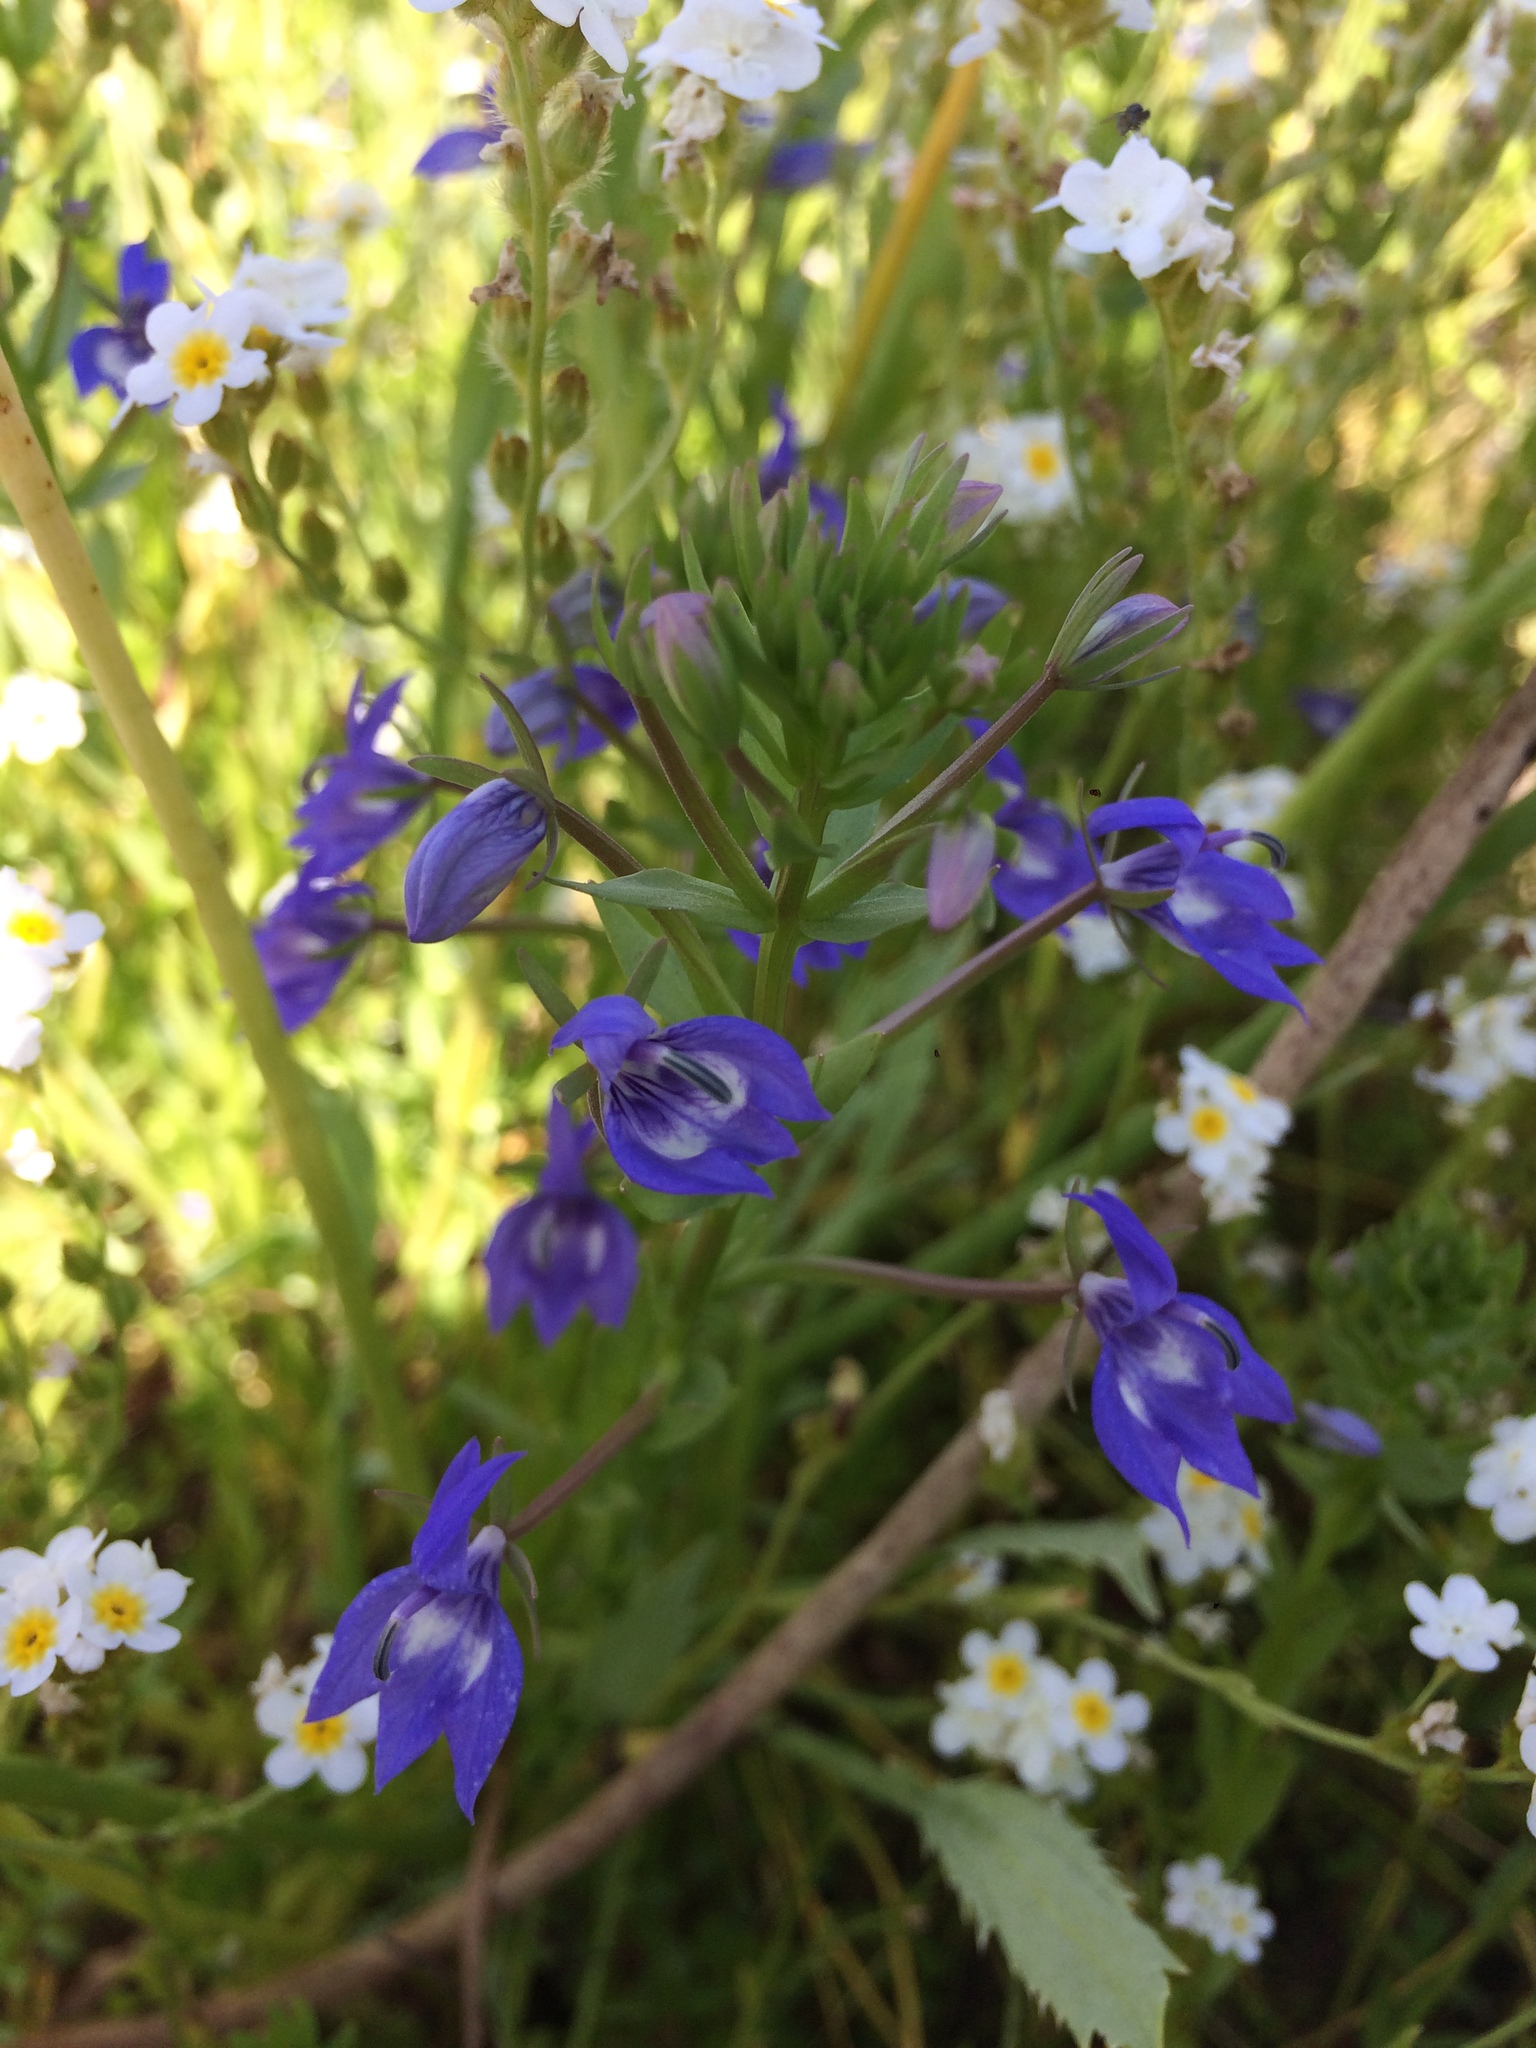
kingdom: Plantae
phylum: Tracheophyta
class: Magnoliopsida
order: Asterales
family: Campanulaceae
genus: Downingia
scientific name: Downingia elegans
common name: Californian lobelia
